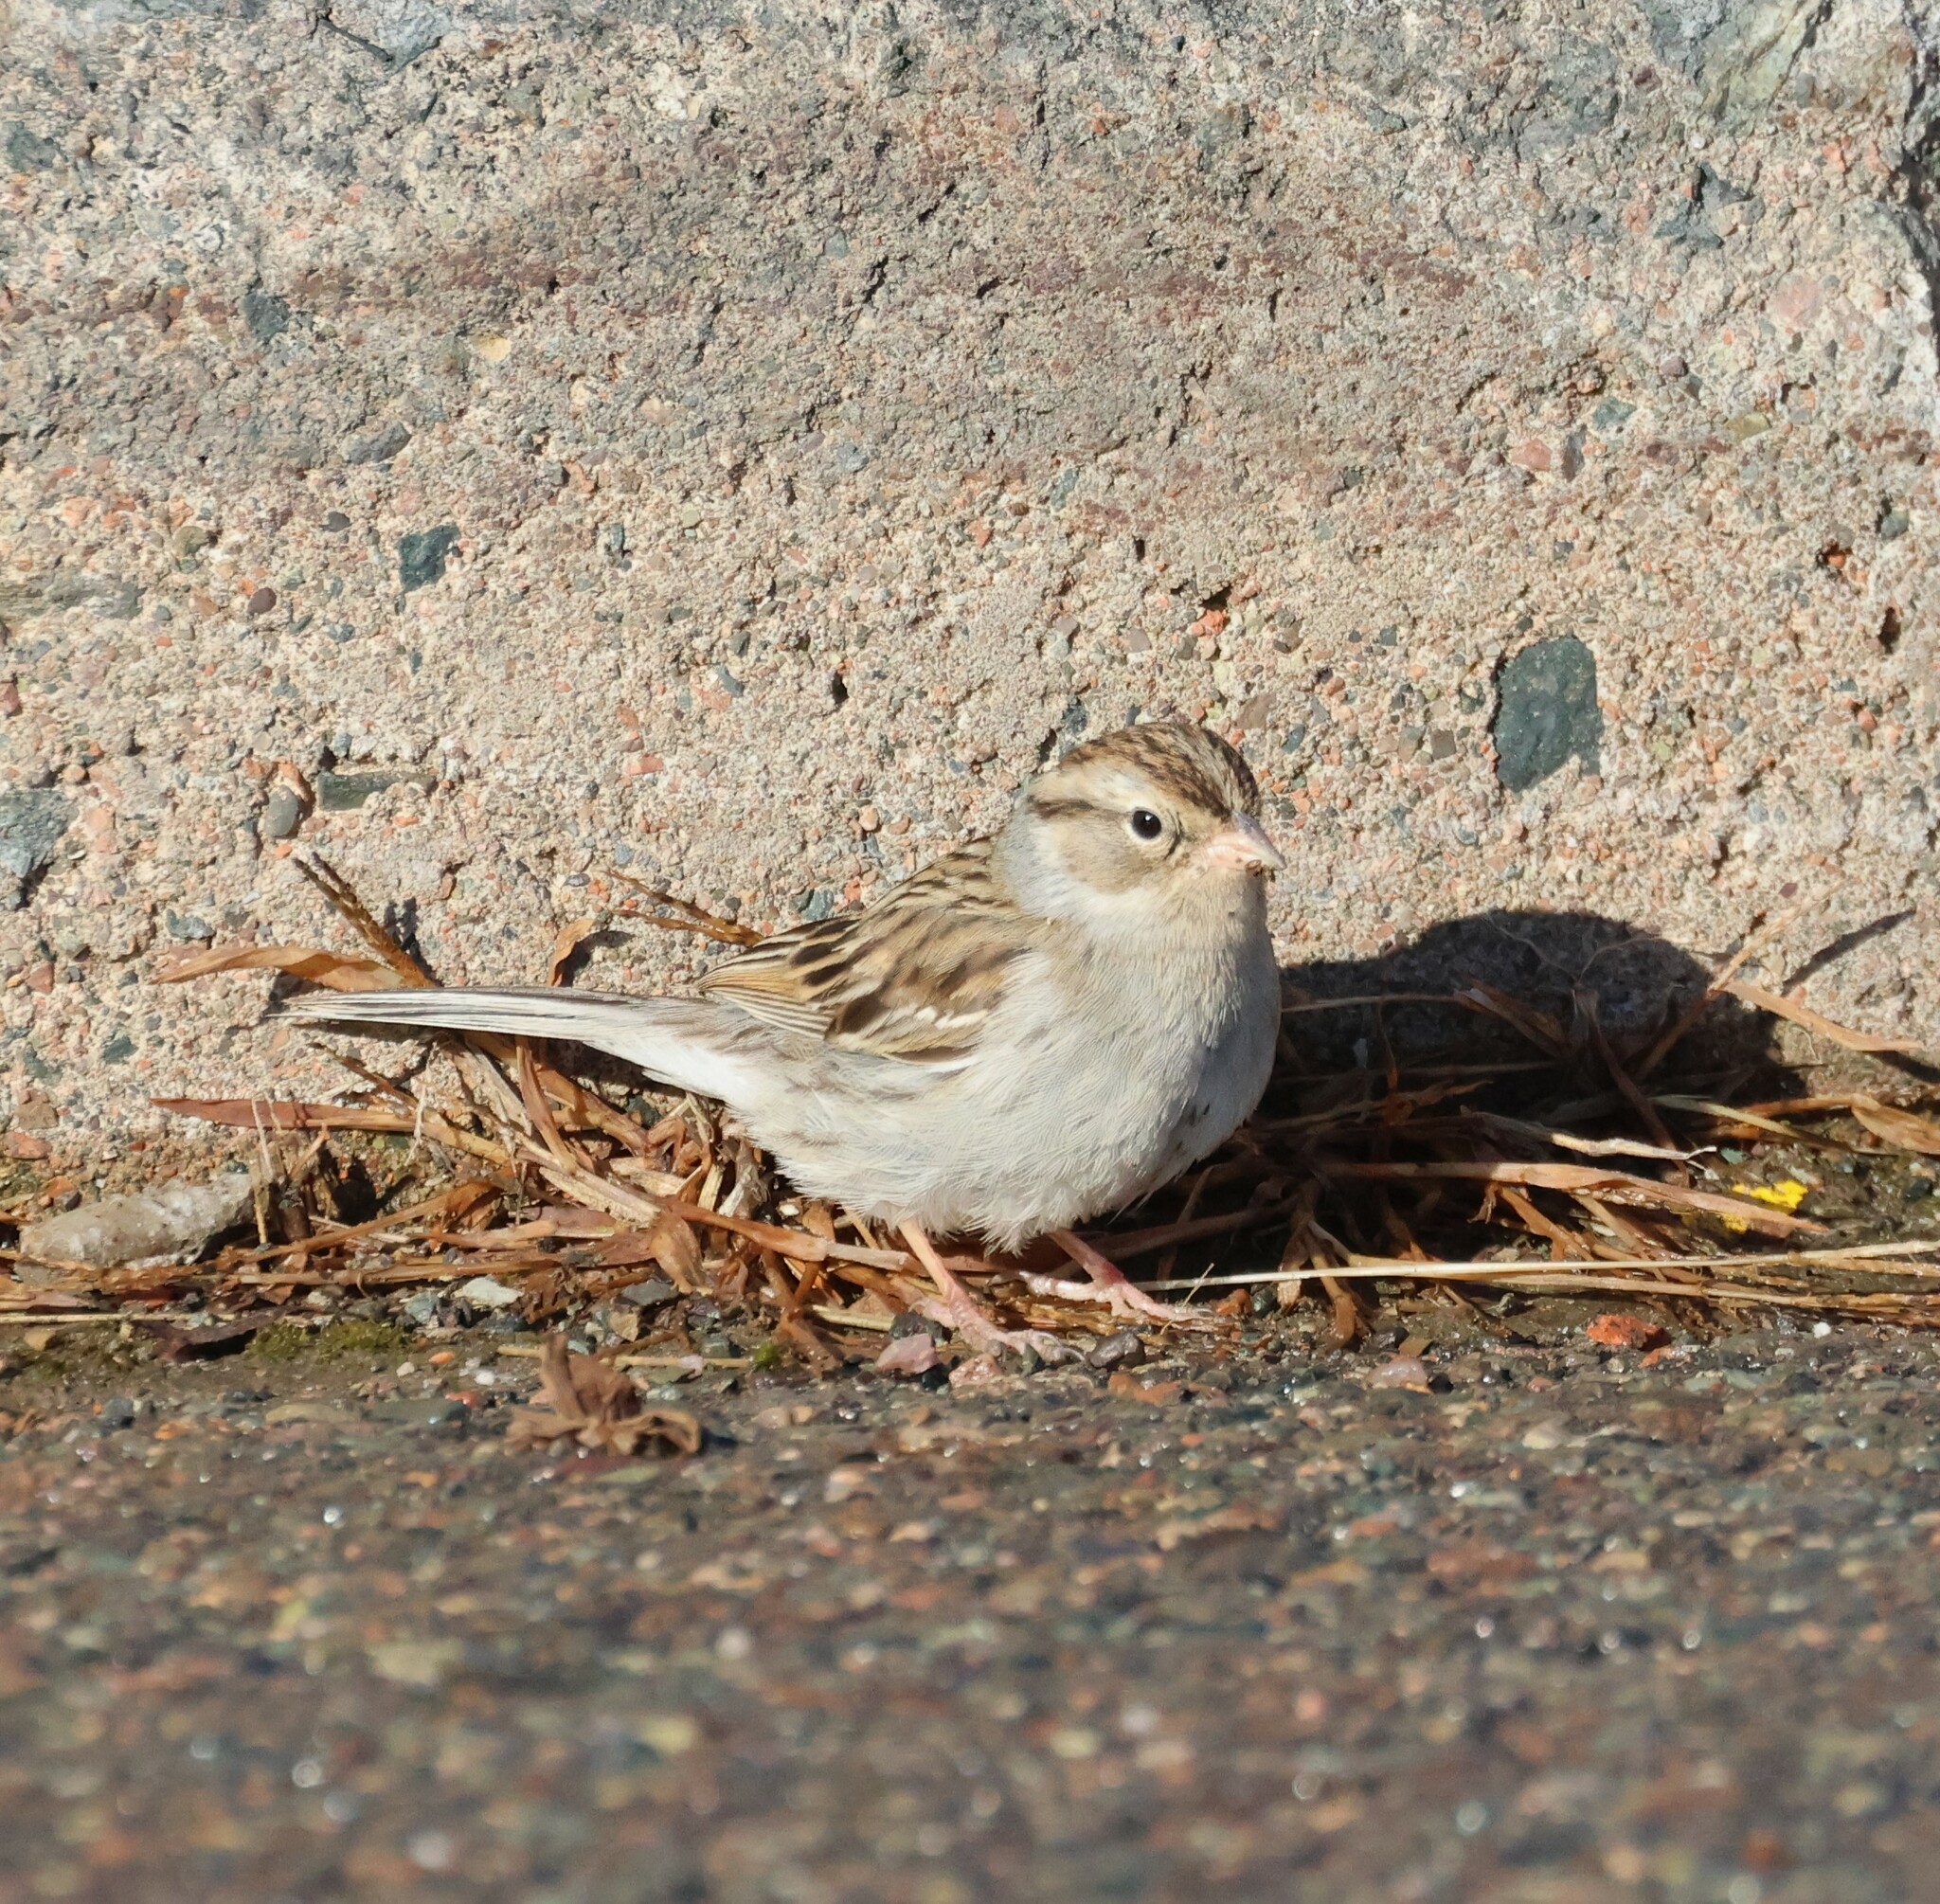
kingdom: Animalia
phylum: Chordata
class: Aves
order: Passeriformes
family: Passerellidae
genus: Spizella
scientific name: Spizella passerina
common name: Chipping sparrow
